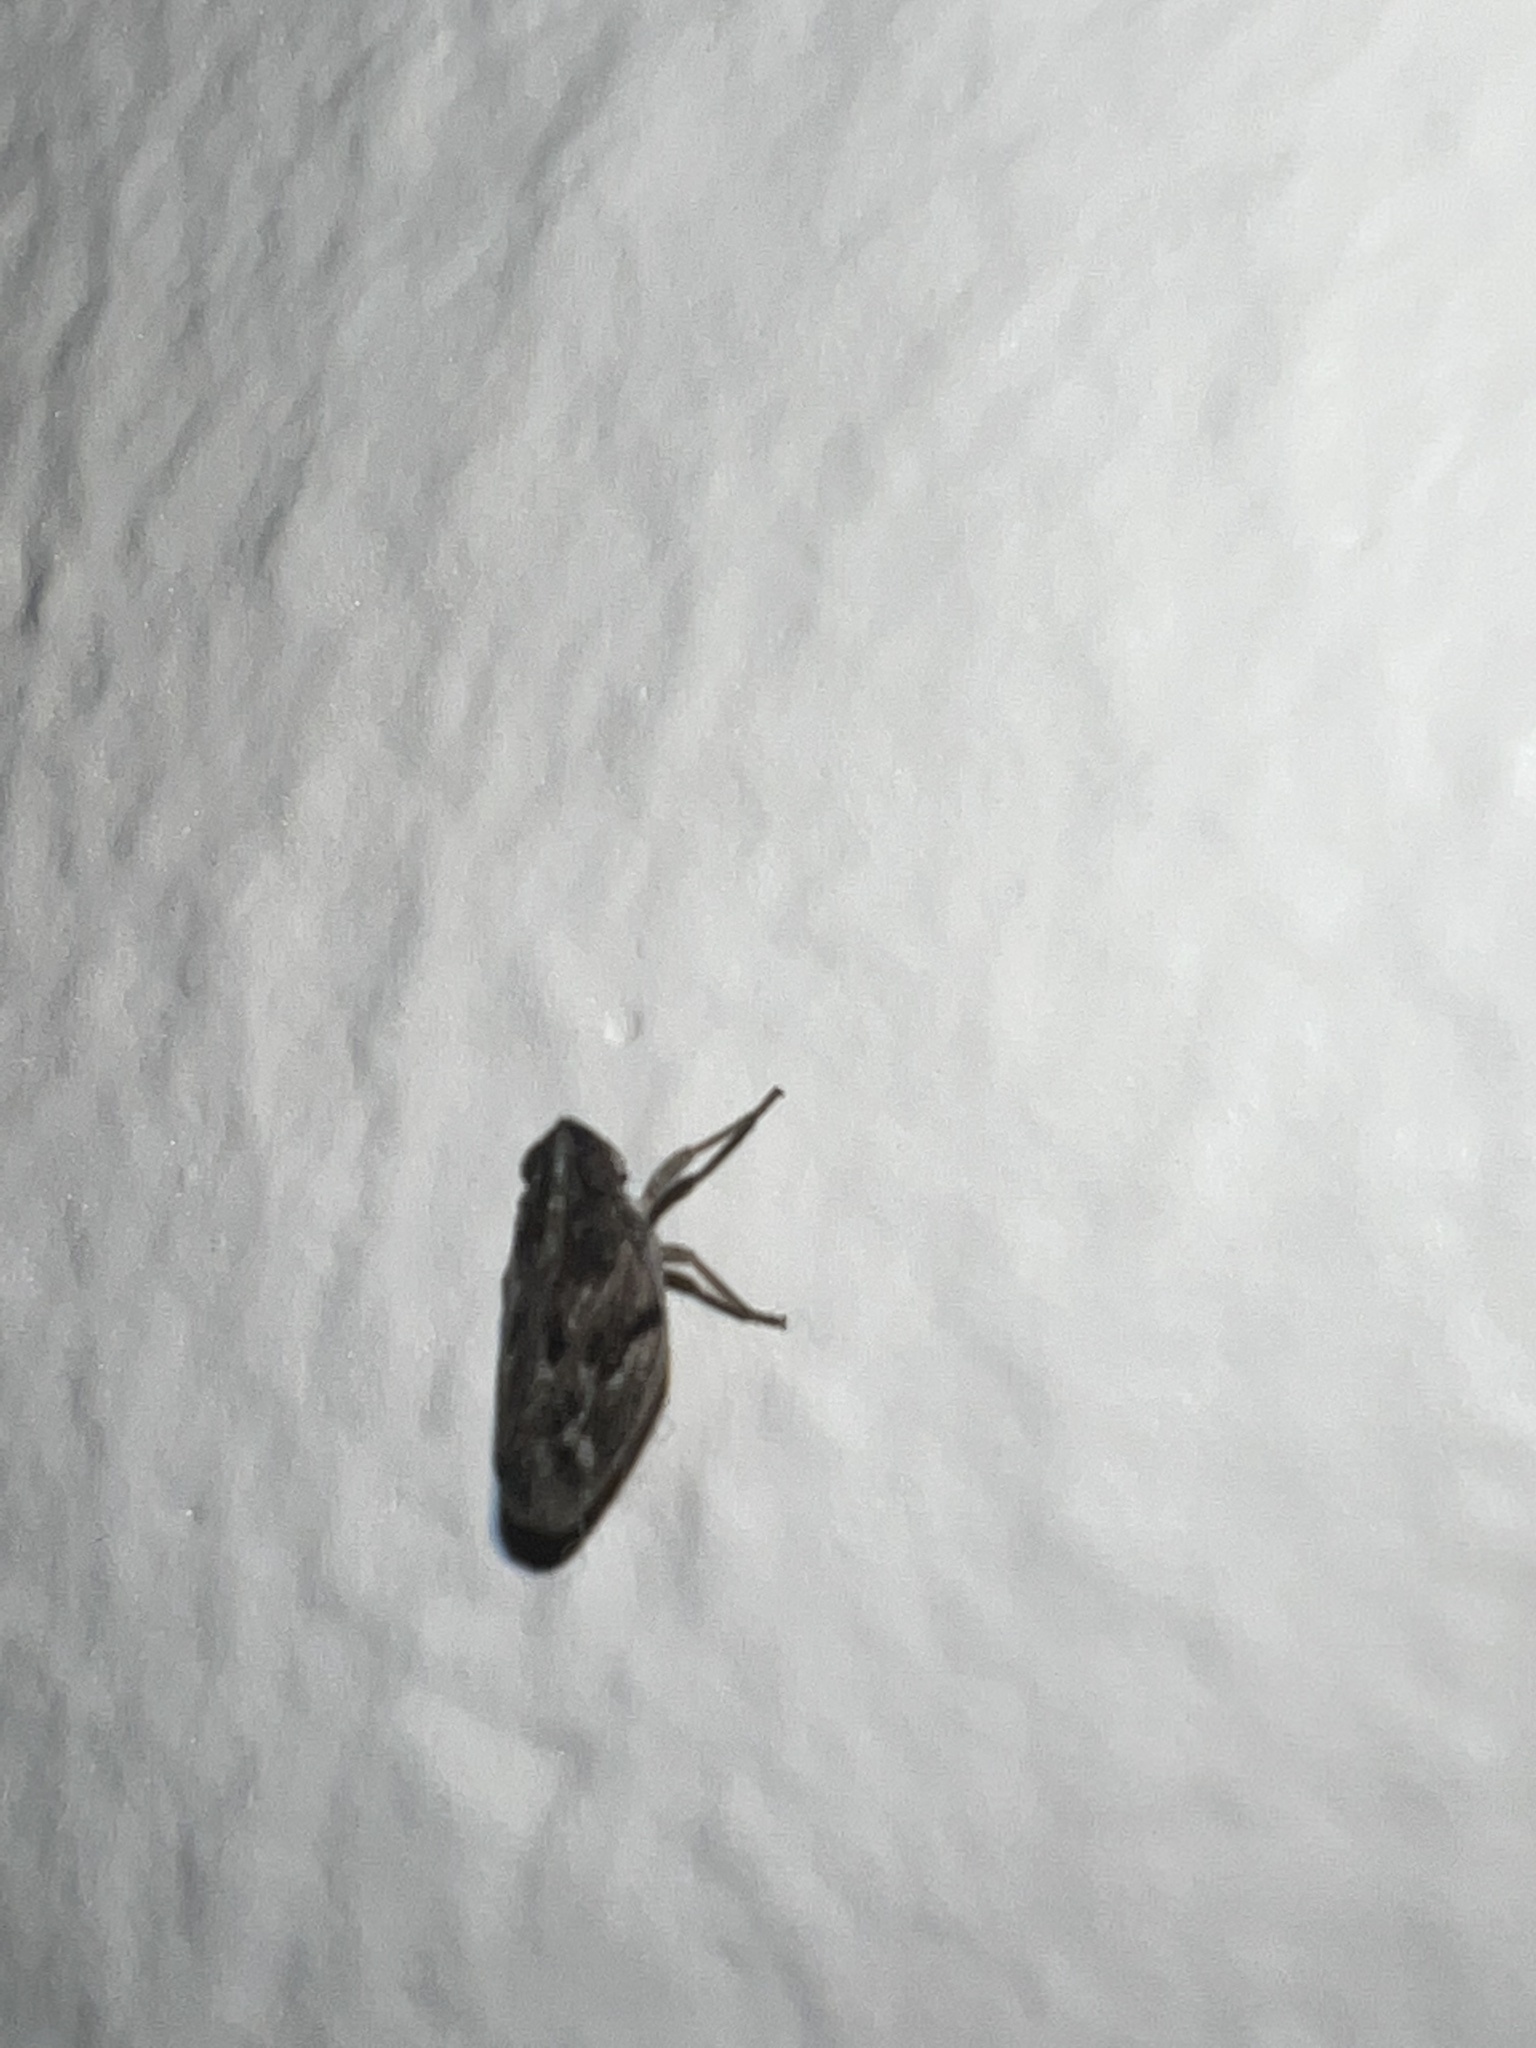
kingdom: Animalia
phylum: Arthropoda
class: Insecta
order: Hemiptera
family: Issidae
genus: Fowlerium
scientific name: Fowlerium productum
